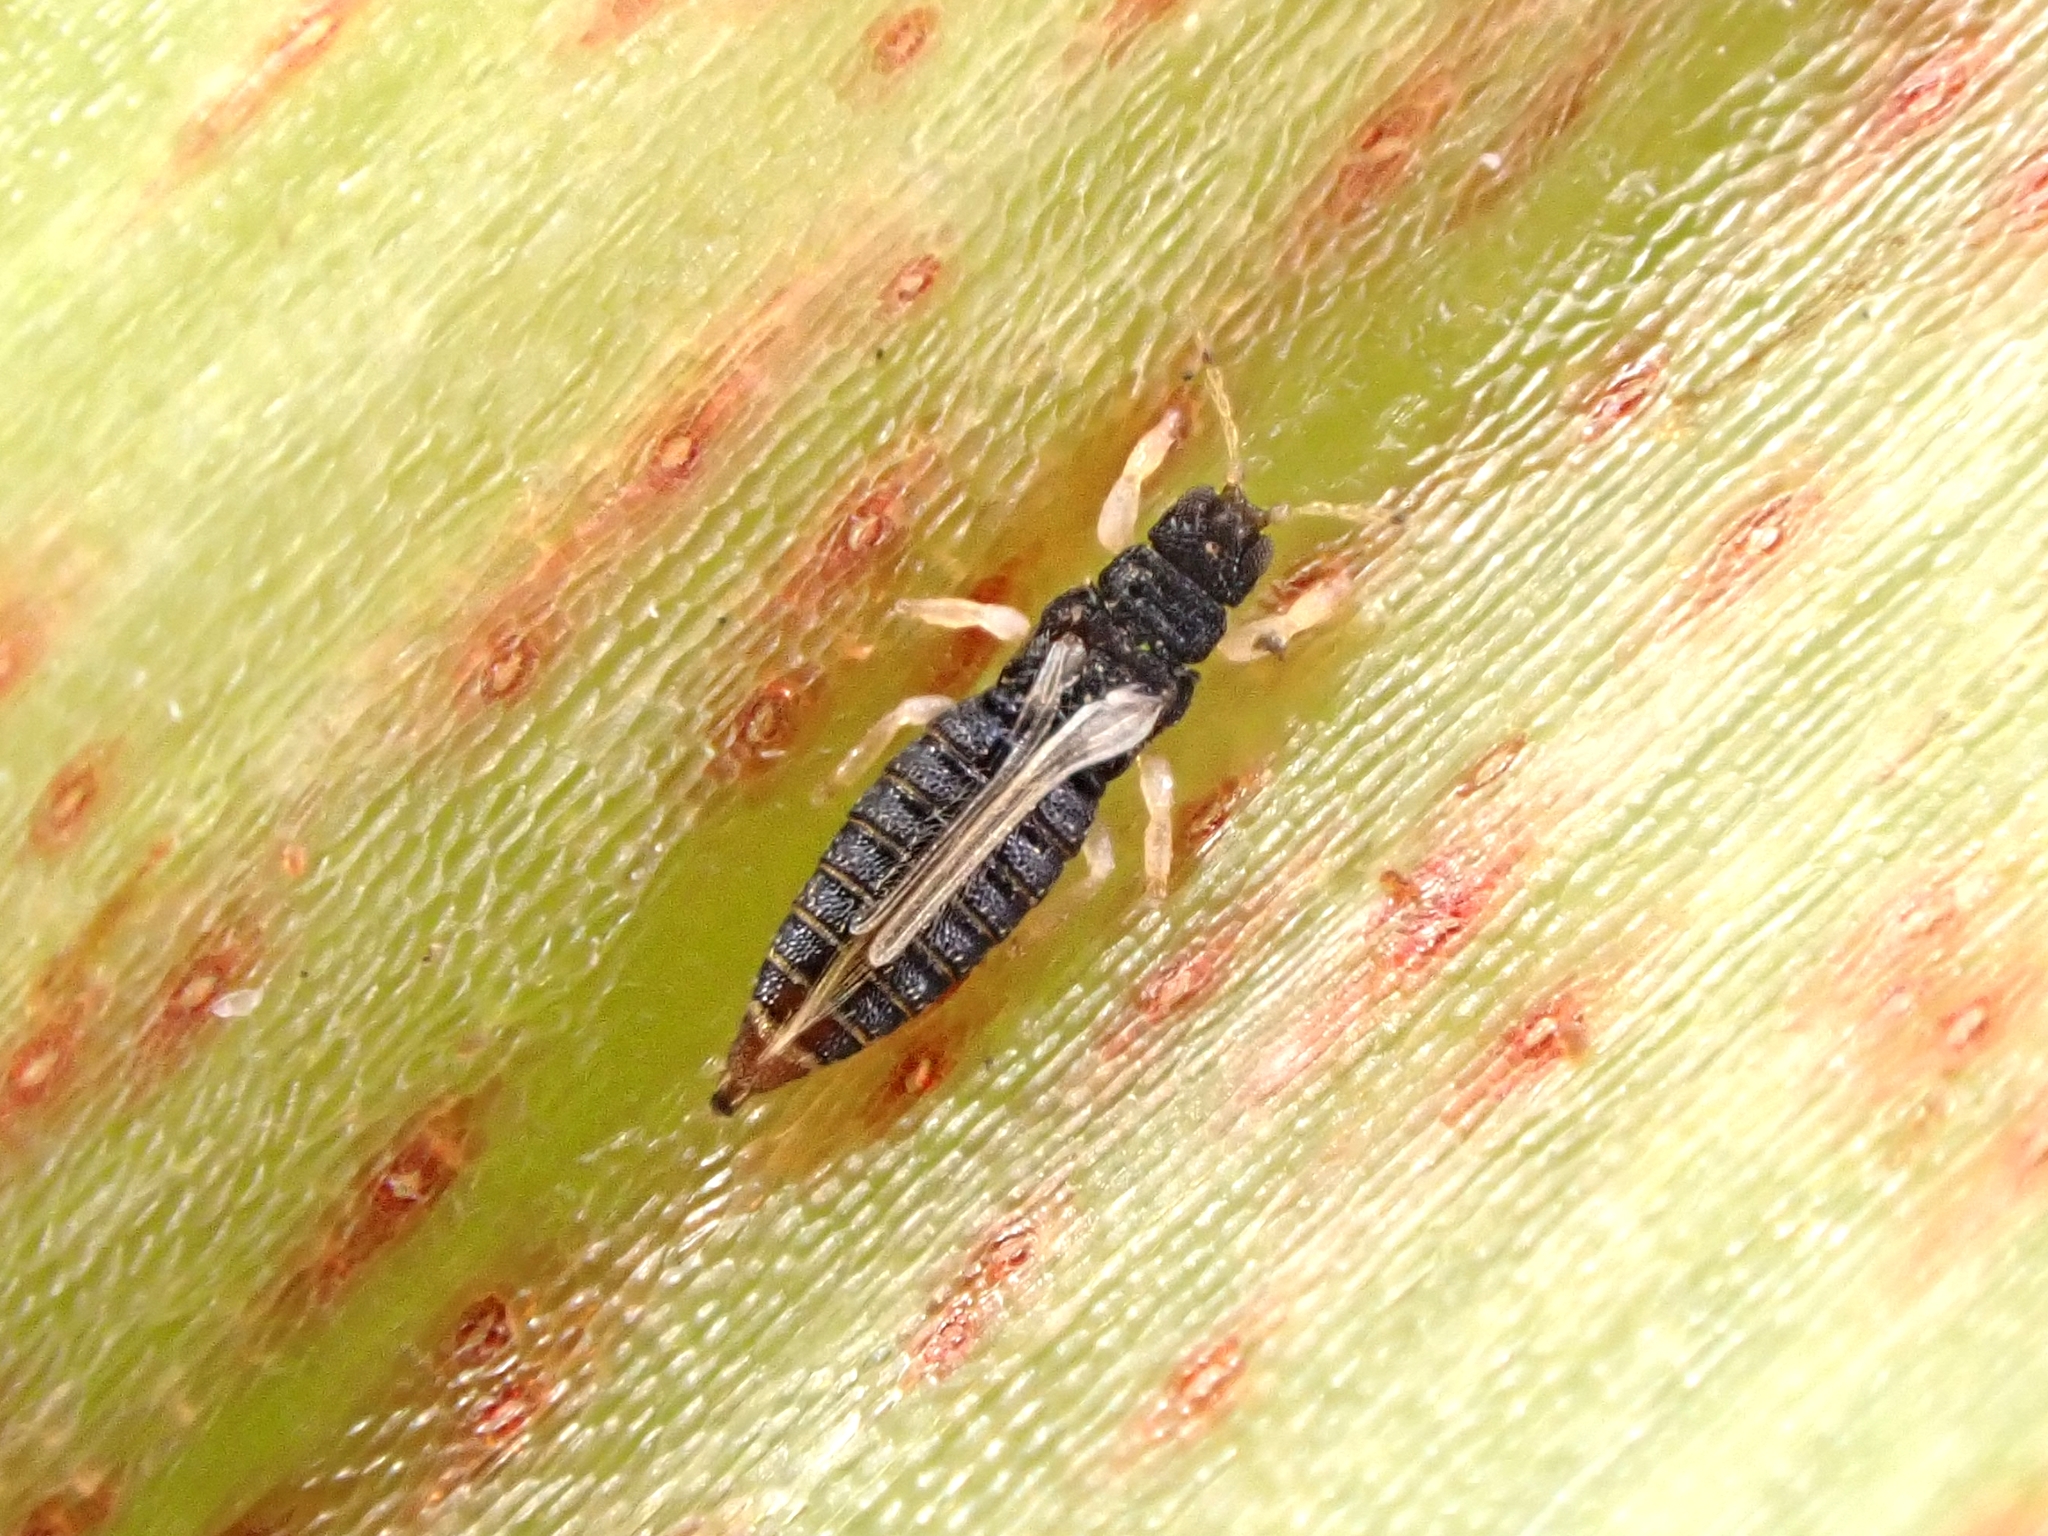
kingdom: Animalia
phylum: Arthropoda
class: Insecta
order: Thysanoptera
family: Thripidae
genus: Heliothrips
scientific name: Heliothrips haemorrhoidalis
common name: Thrips
